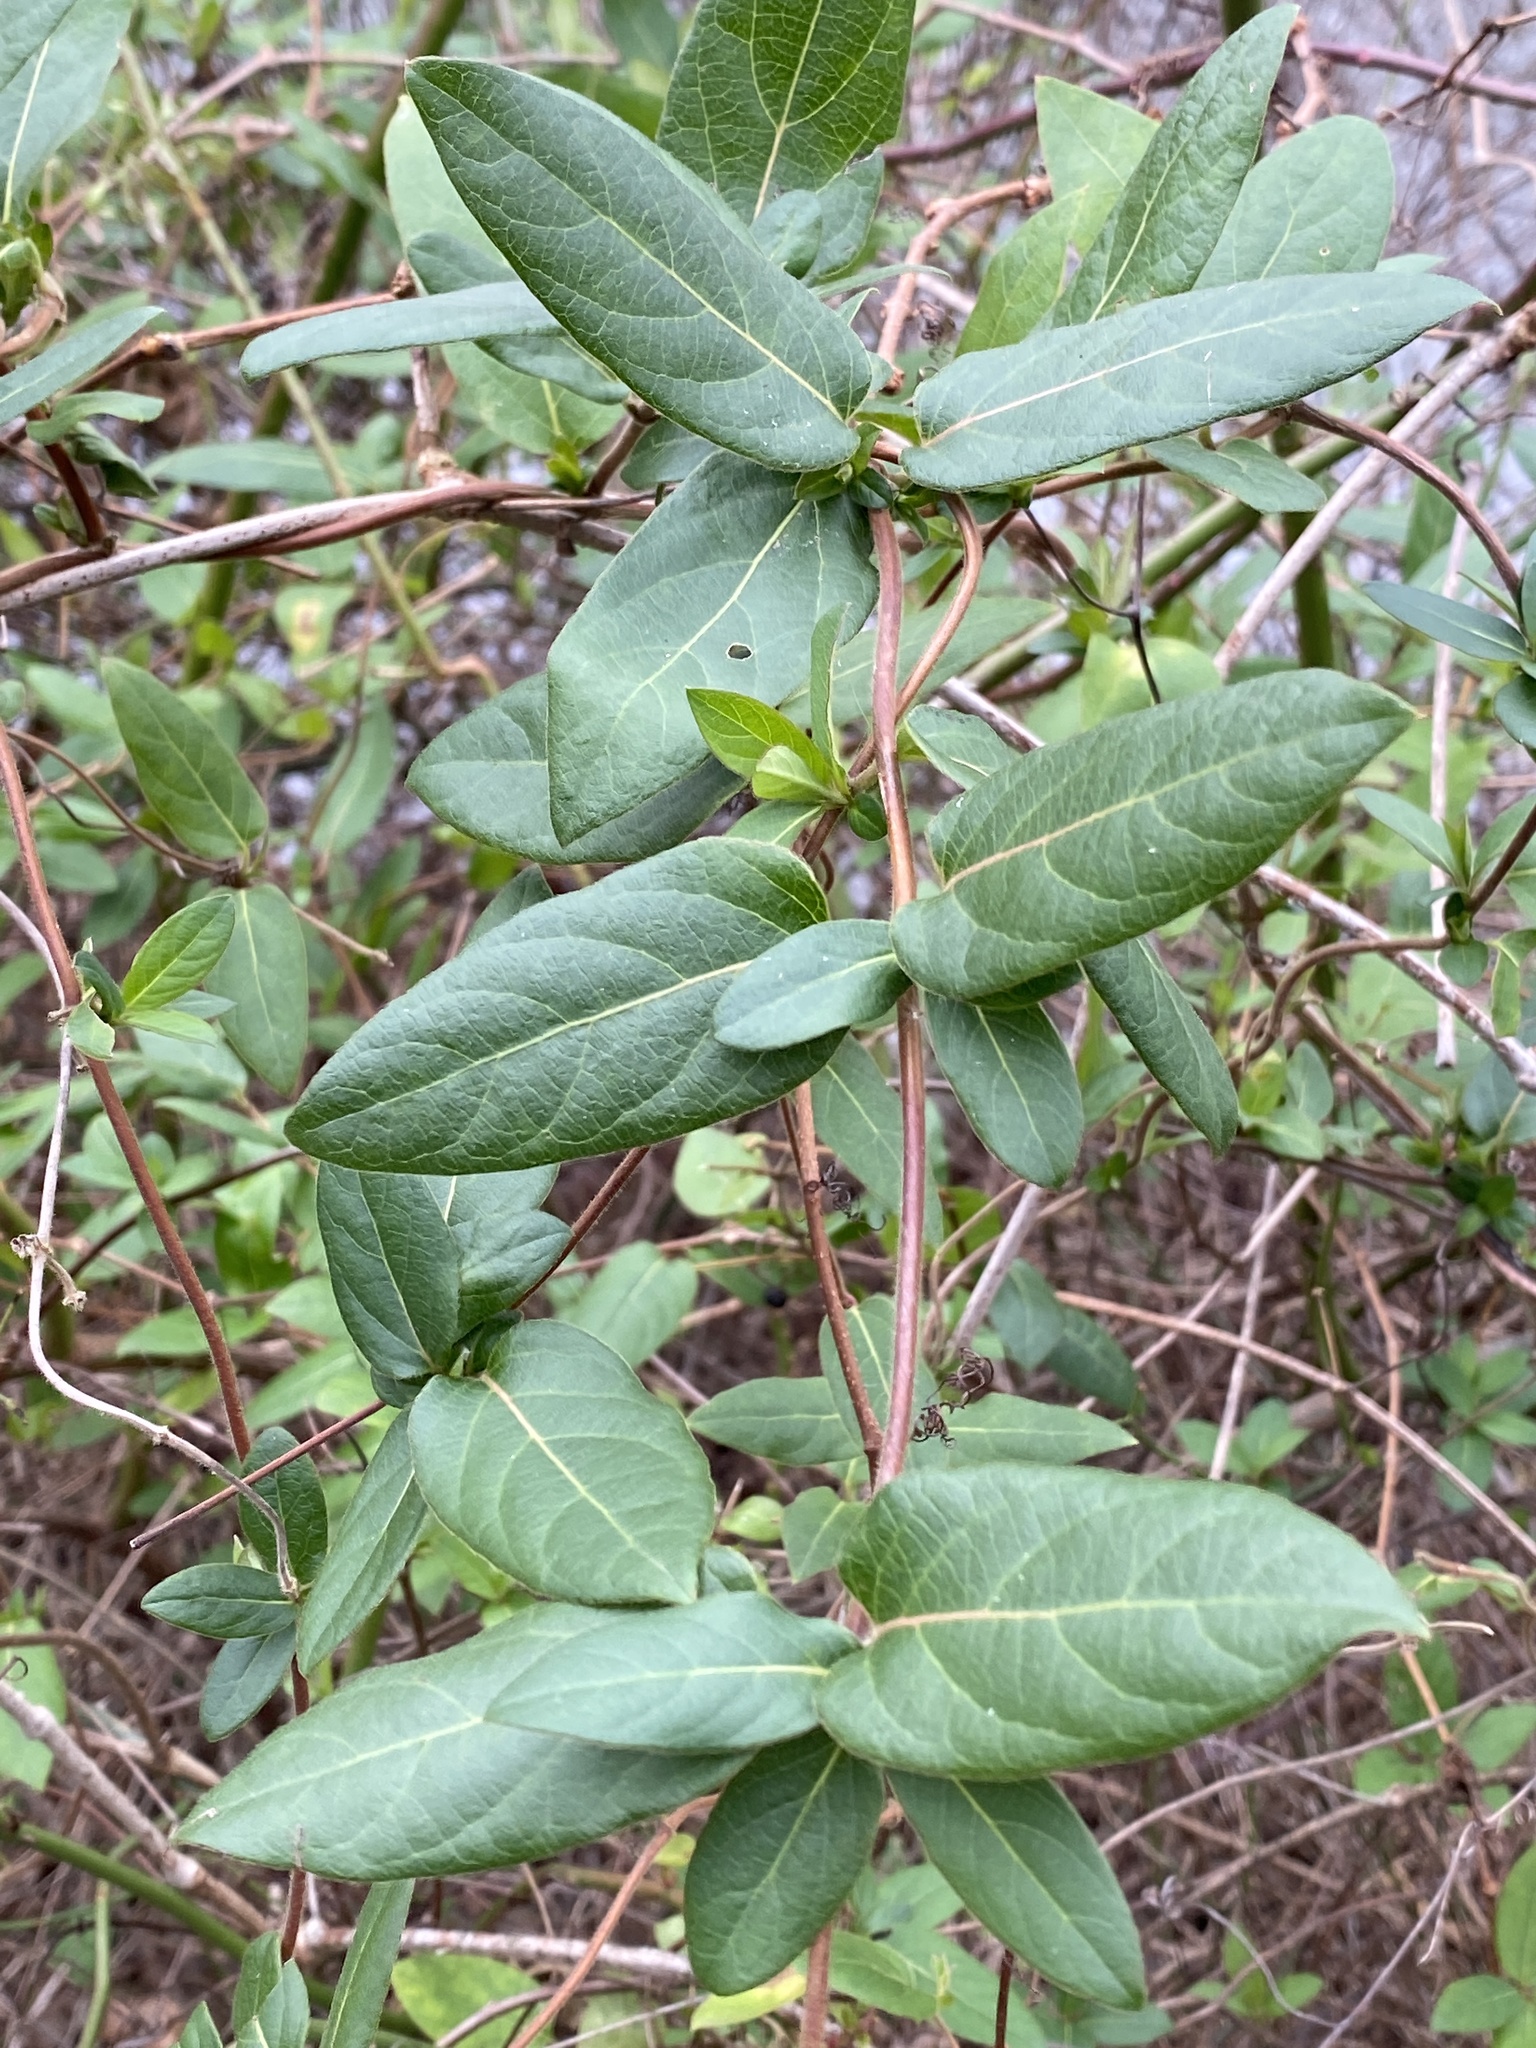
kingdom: Plantae
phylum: Tracheophyta
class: Magnoliopsida
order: Dipsacales
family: Caprifoliaceae
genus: Lonicera
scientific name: Lonicera japonica
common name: Japanese honeysuckle
